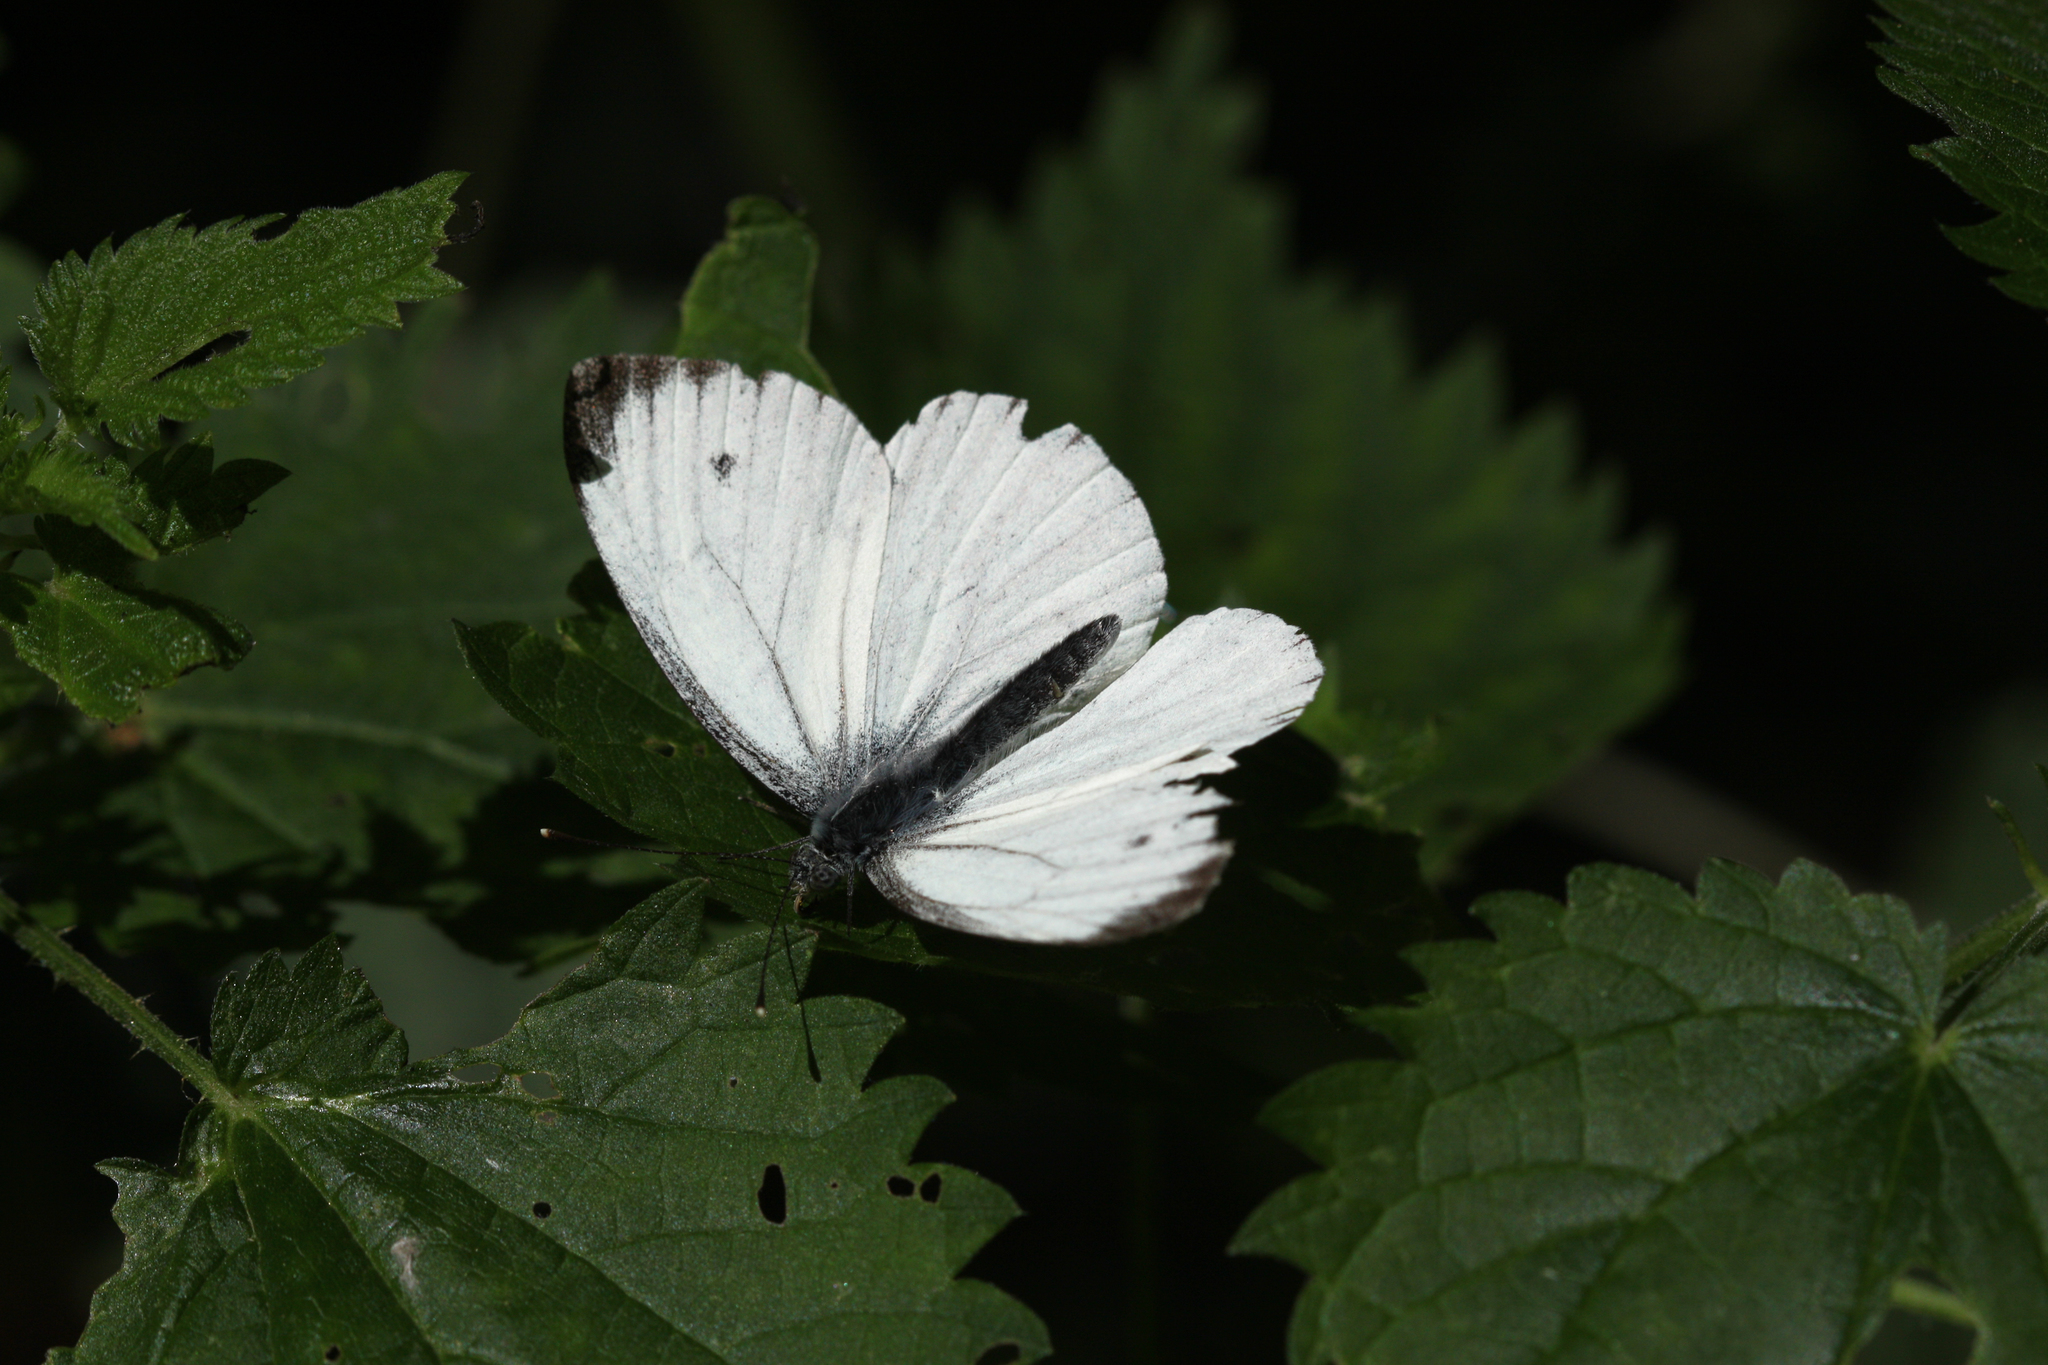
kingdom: Animalia
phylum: Arthropoda
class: Insecta
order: Lepidoptera
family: Pieridae
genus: Pieris
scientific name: Pieris napi
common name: Green-veined white
